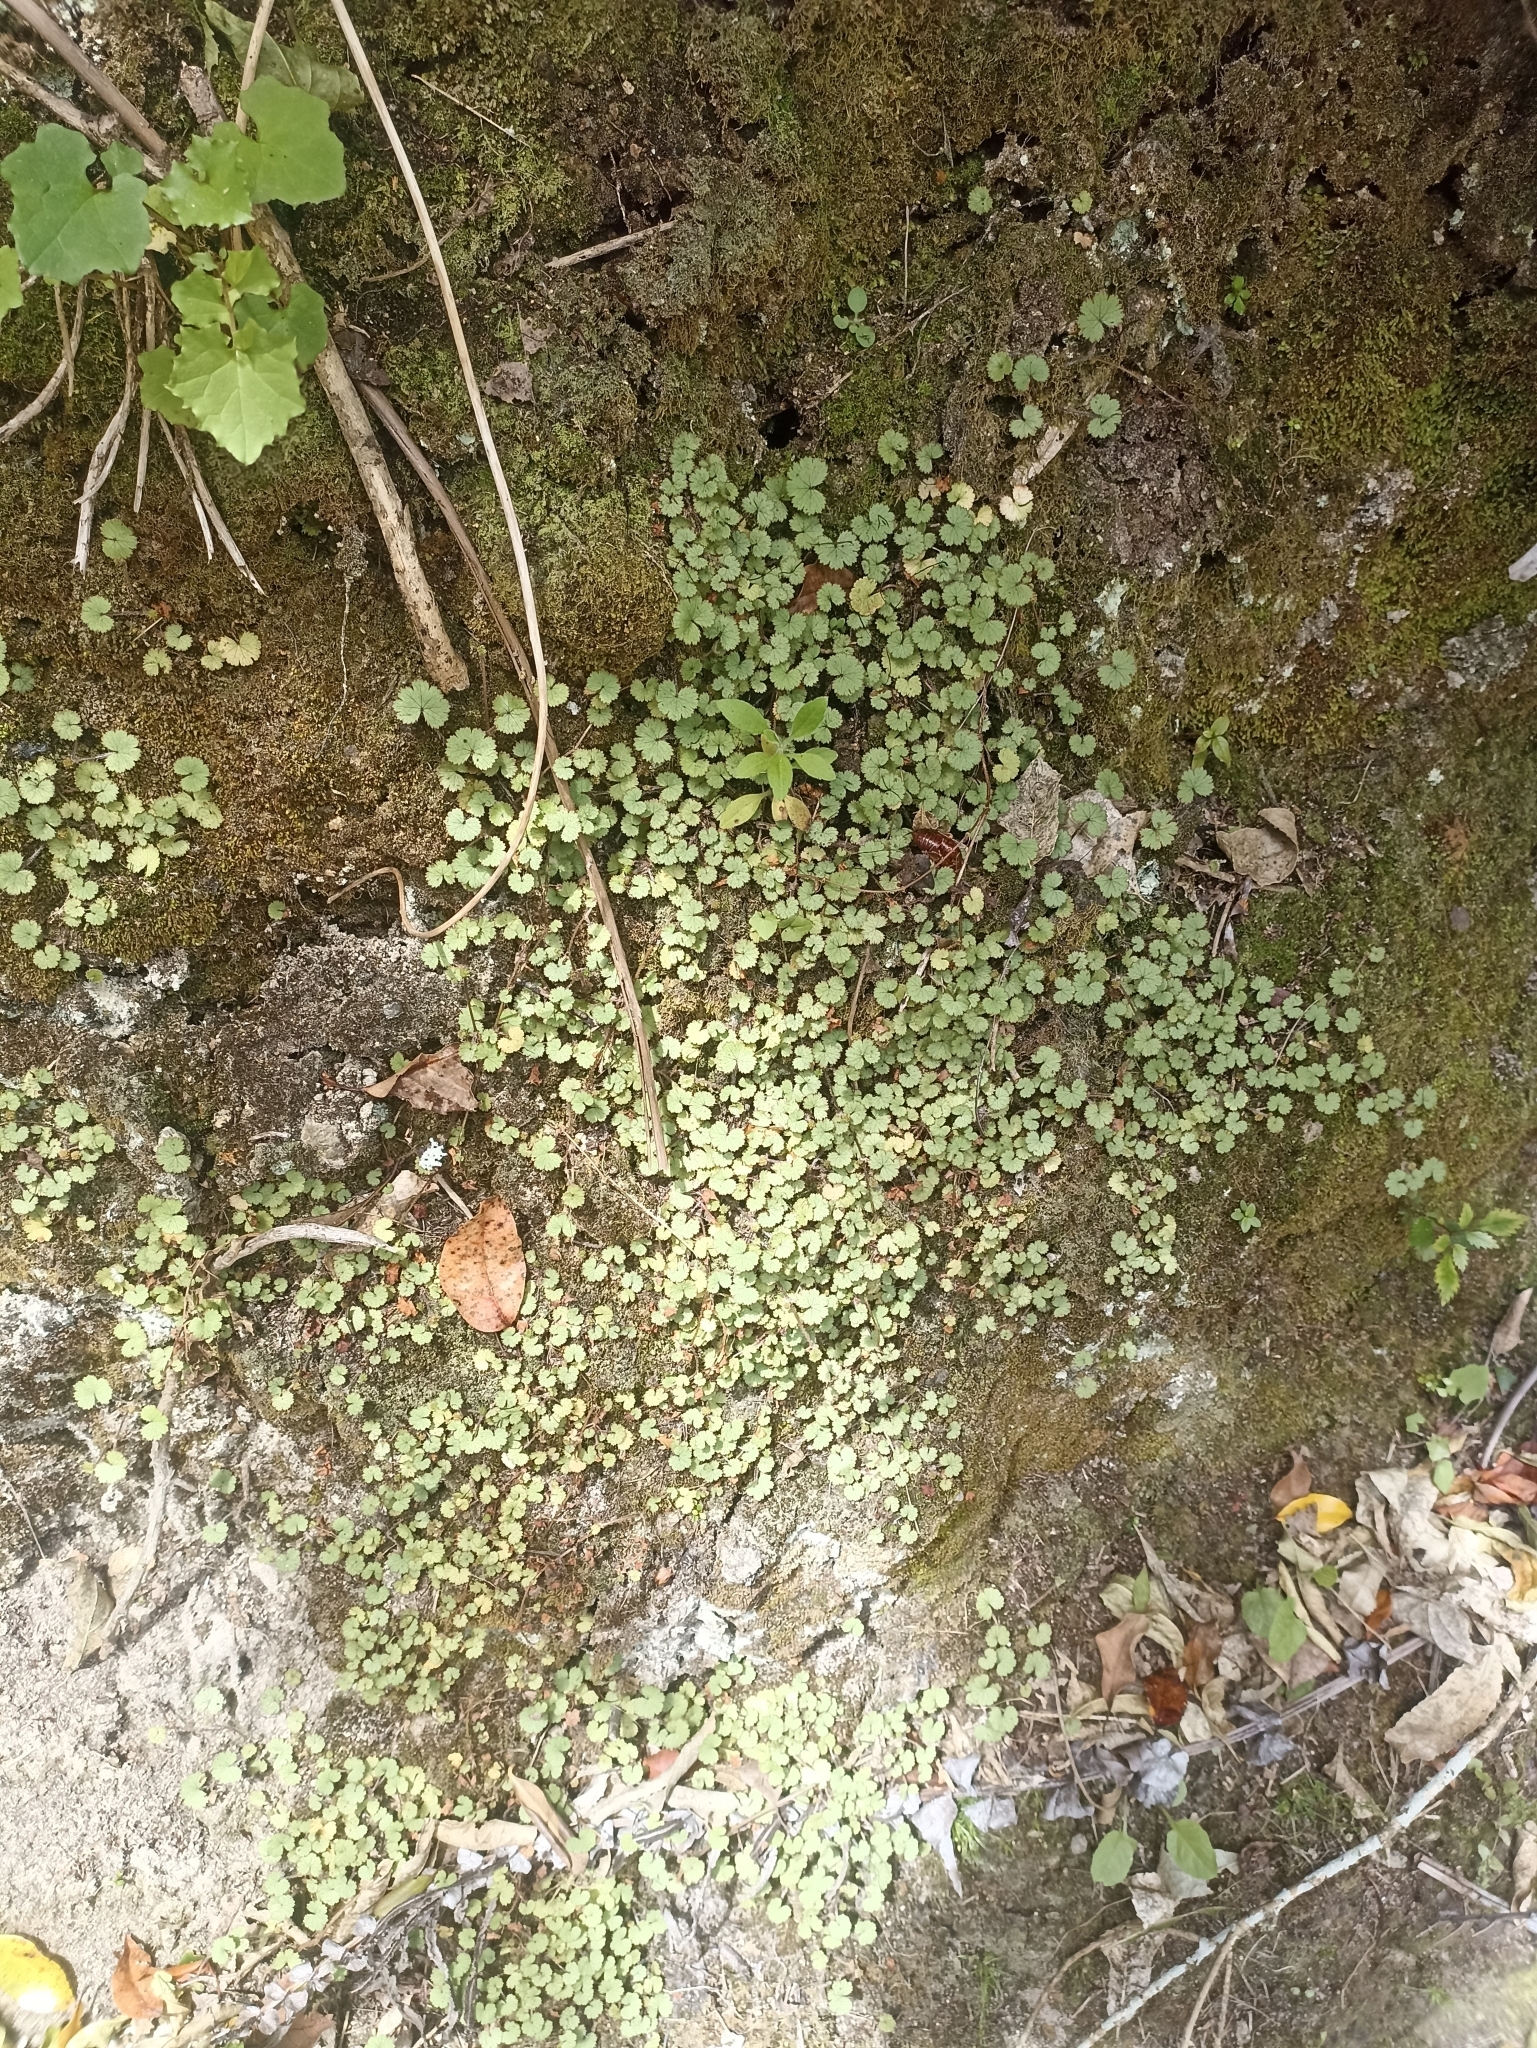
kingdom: Plantae
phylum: Tracheophyta
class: Magnoliopsida
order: Apiales
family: Araliaceae
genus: Hydrocotyle
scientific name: Hydrocotyle moschata
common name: Hairy pennywort
